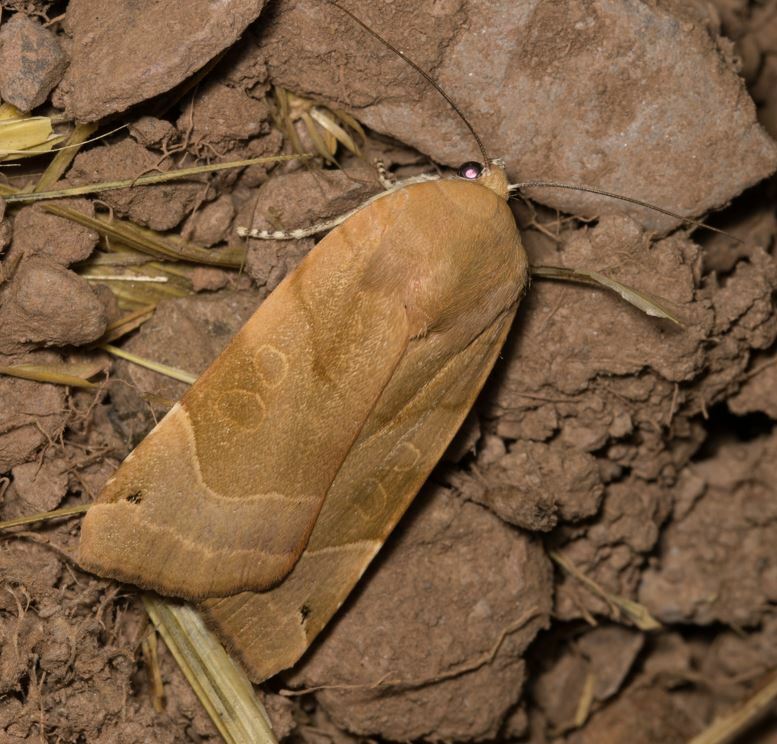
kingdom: Animalia
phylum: Arthropoda
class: Insecta
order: Lepidoptera
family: Noctuidae
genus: Noctua
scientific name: Noctua fimbriata
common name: Broad-bordered yellow underwing
